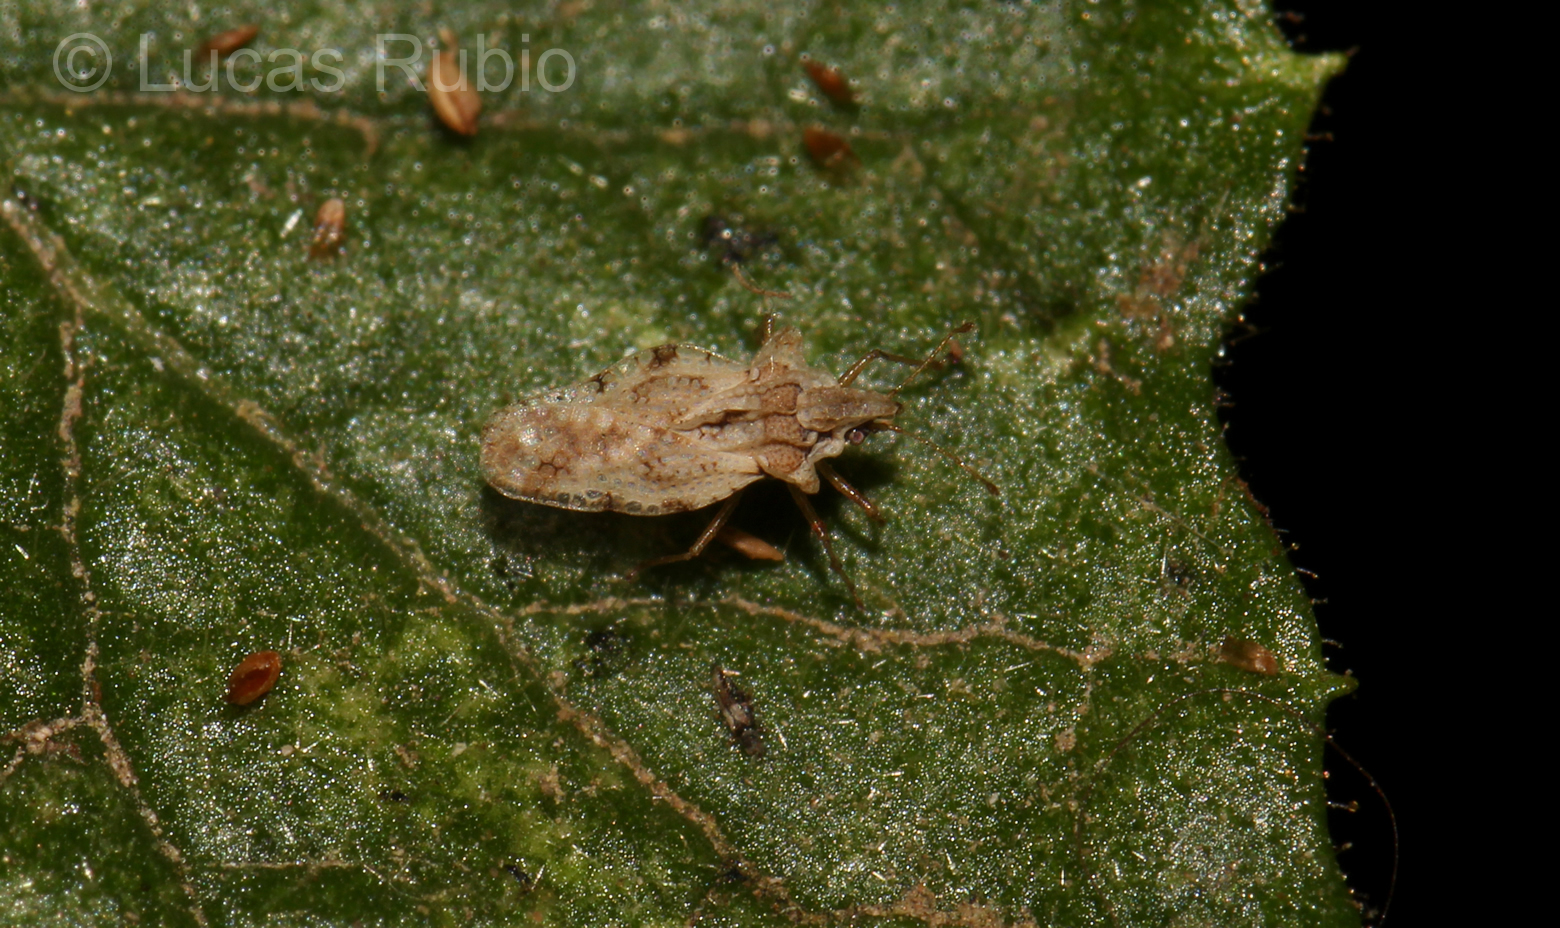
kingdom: Animalia
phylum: Arthropoda
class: Insecta
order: Hemiptera
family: Tingidae
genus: Corythaica
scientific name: Corythaica cyathicollis
